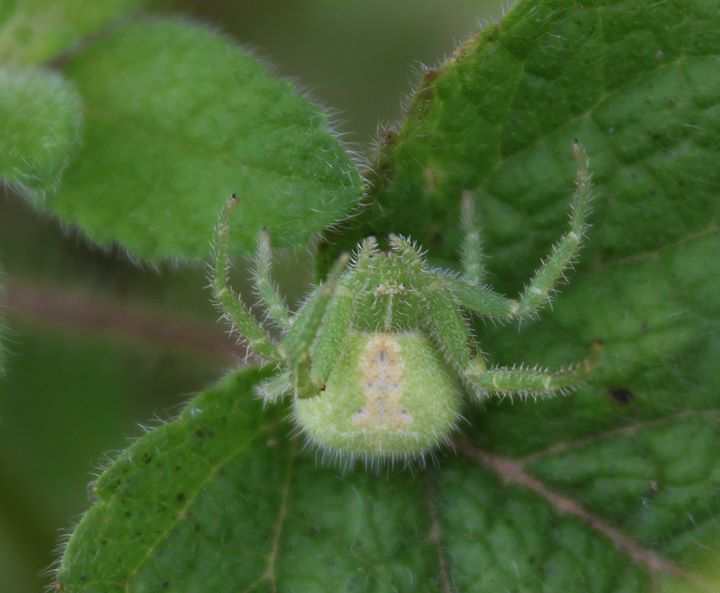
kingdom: Animalia
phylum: Arthropoda
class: Arachnida
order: Araneae
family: Thomisidae
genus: Heriaeus
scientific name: Heriaeus hirtus
